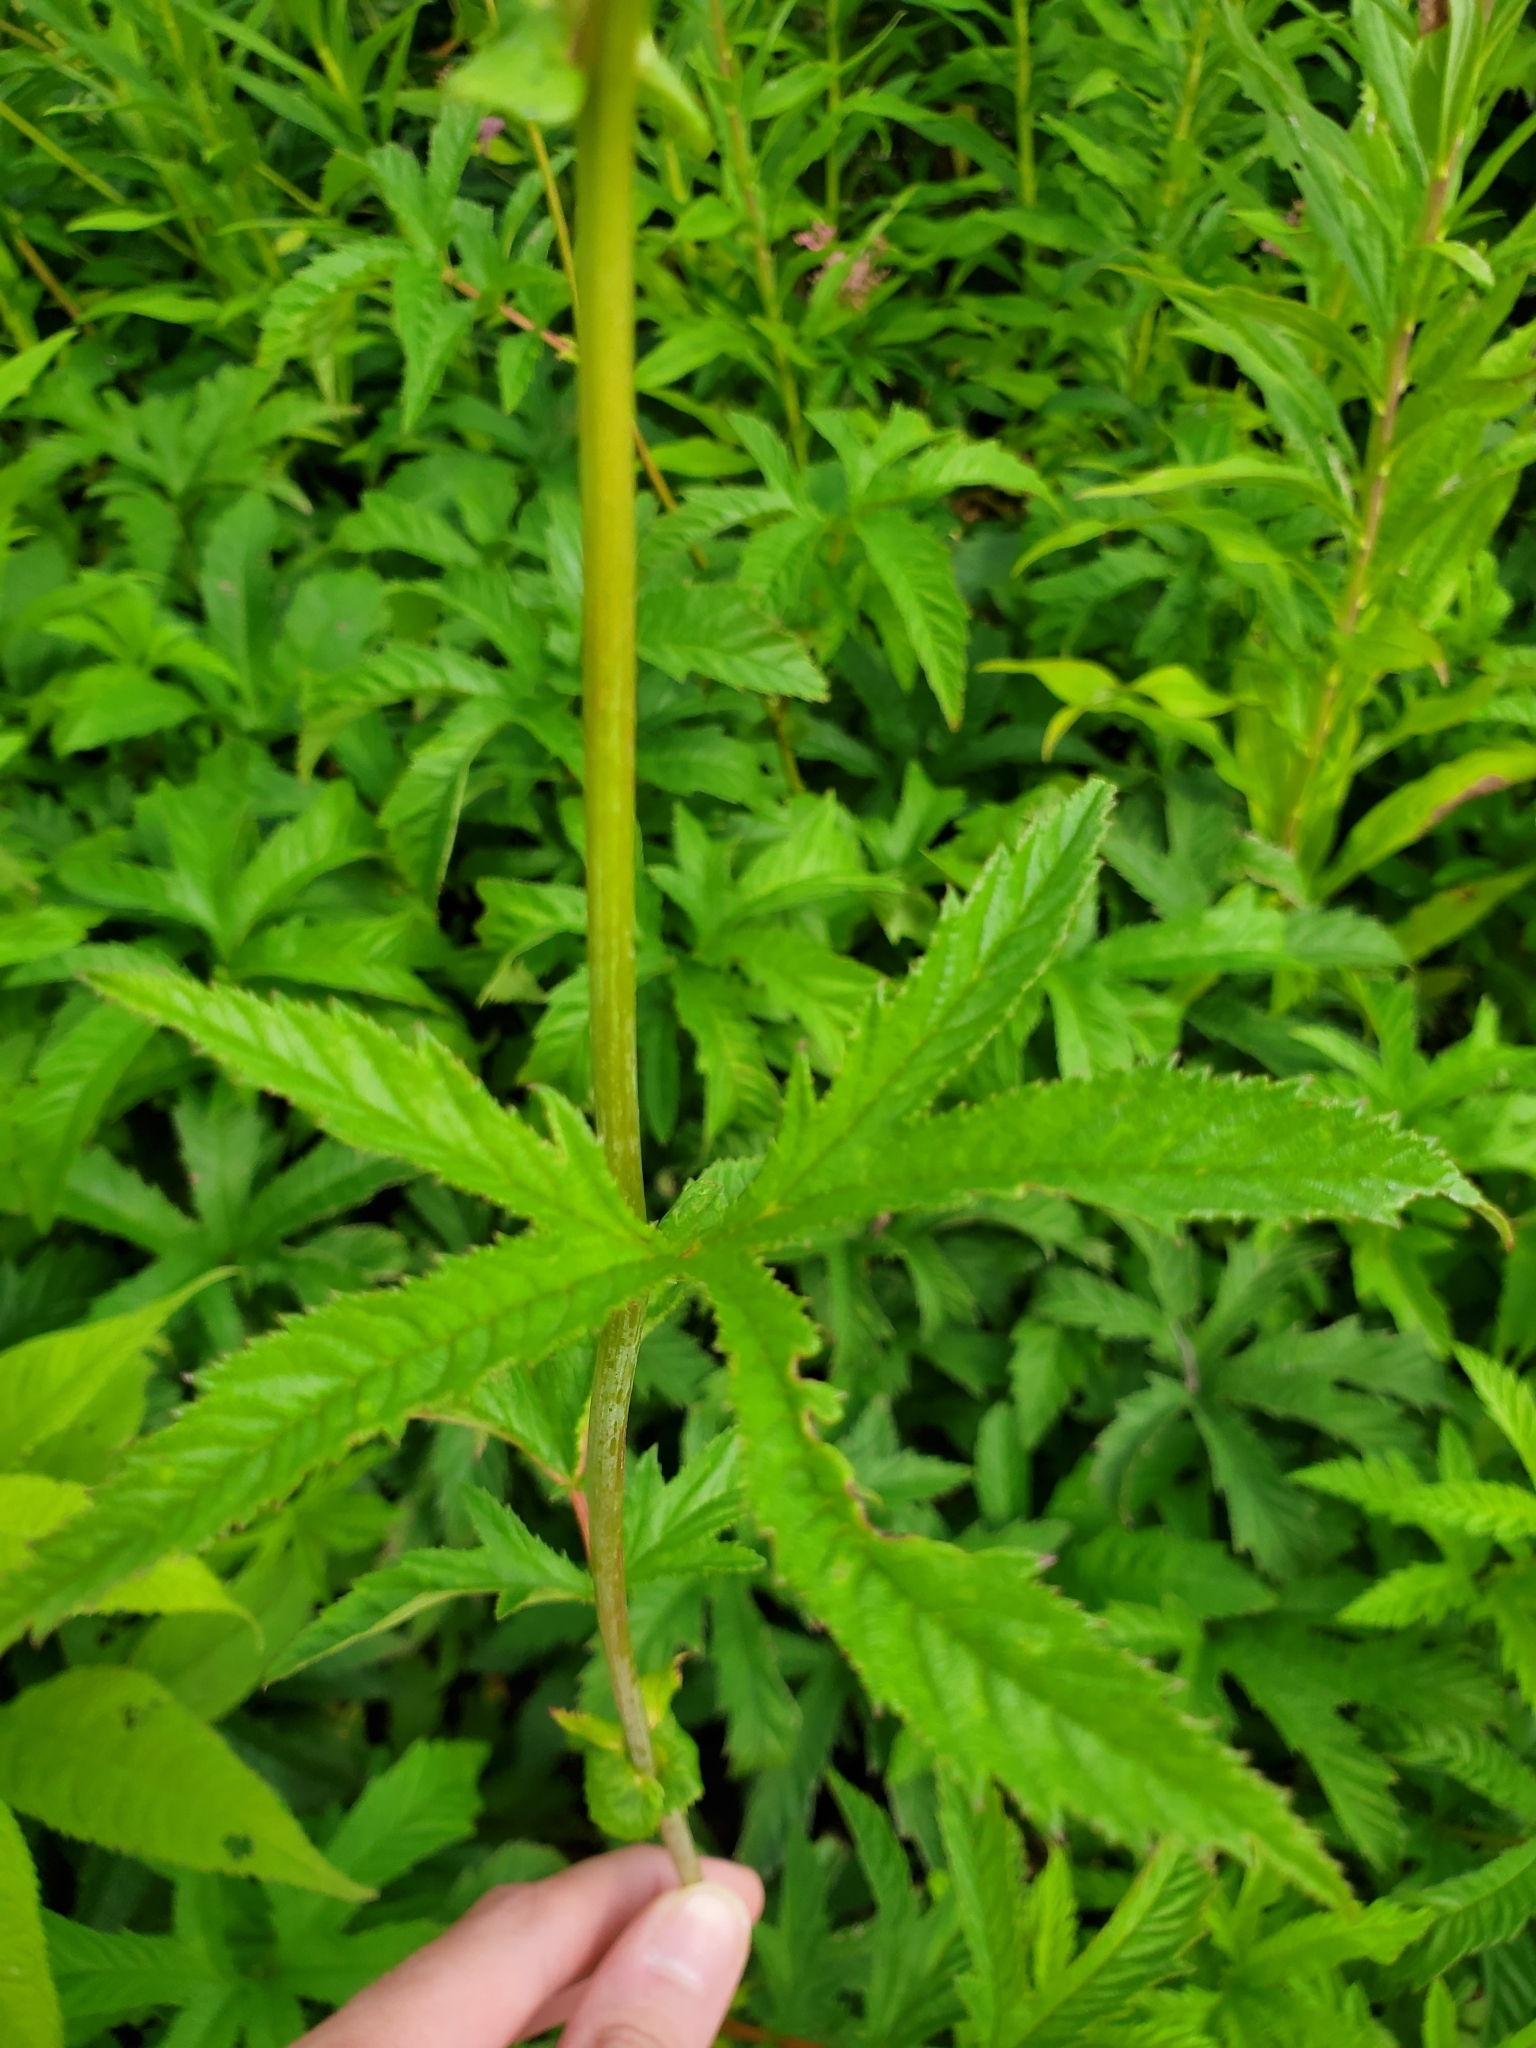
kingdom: Plantae
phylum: Tracheophyta
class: Magnoliopsida
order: Rosales
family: Rosaceae
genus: Filipendula
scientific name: Filipendula rubra
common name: Queen-of-the-prairie
